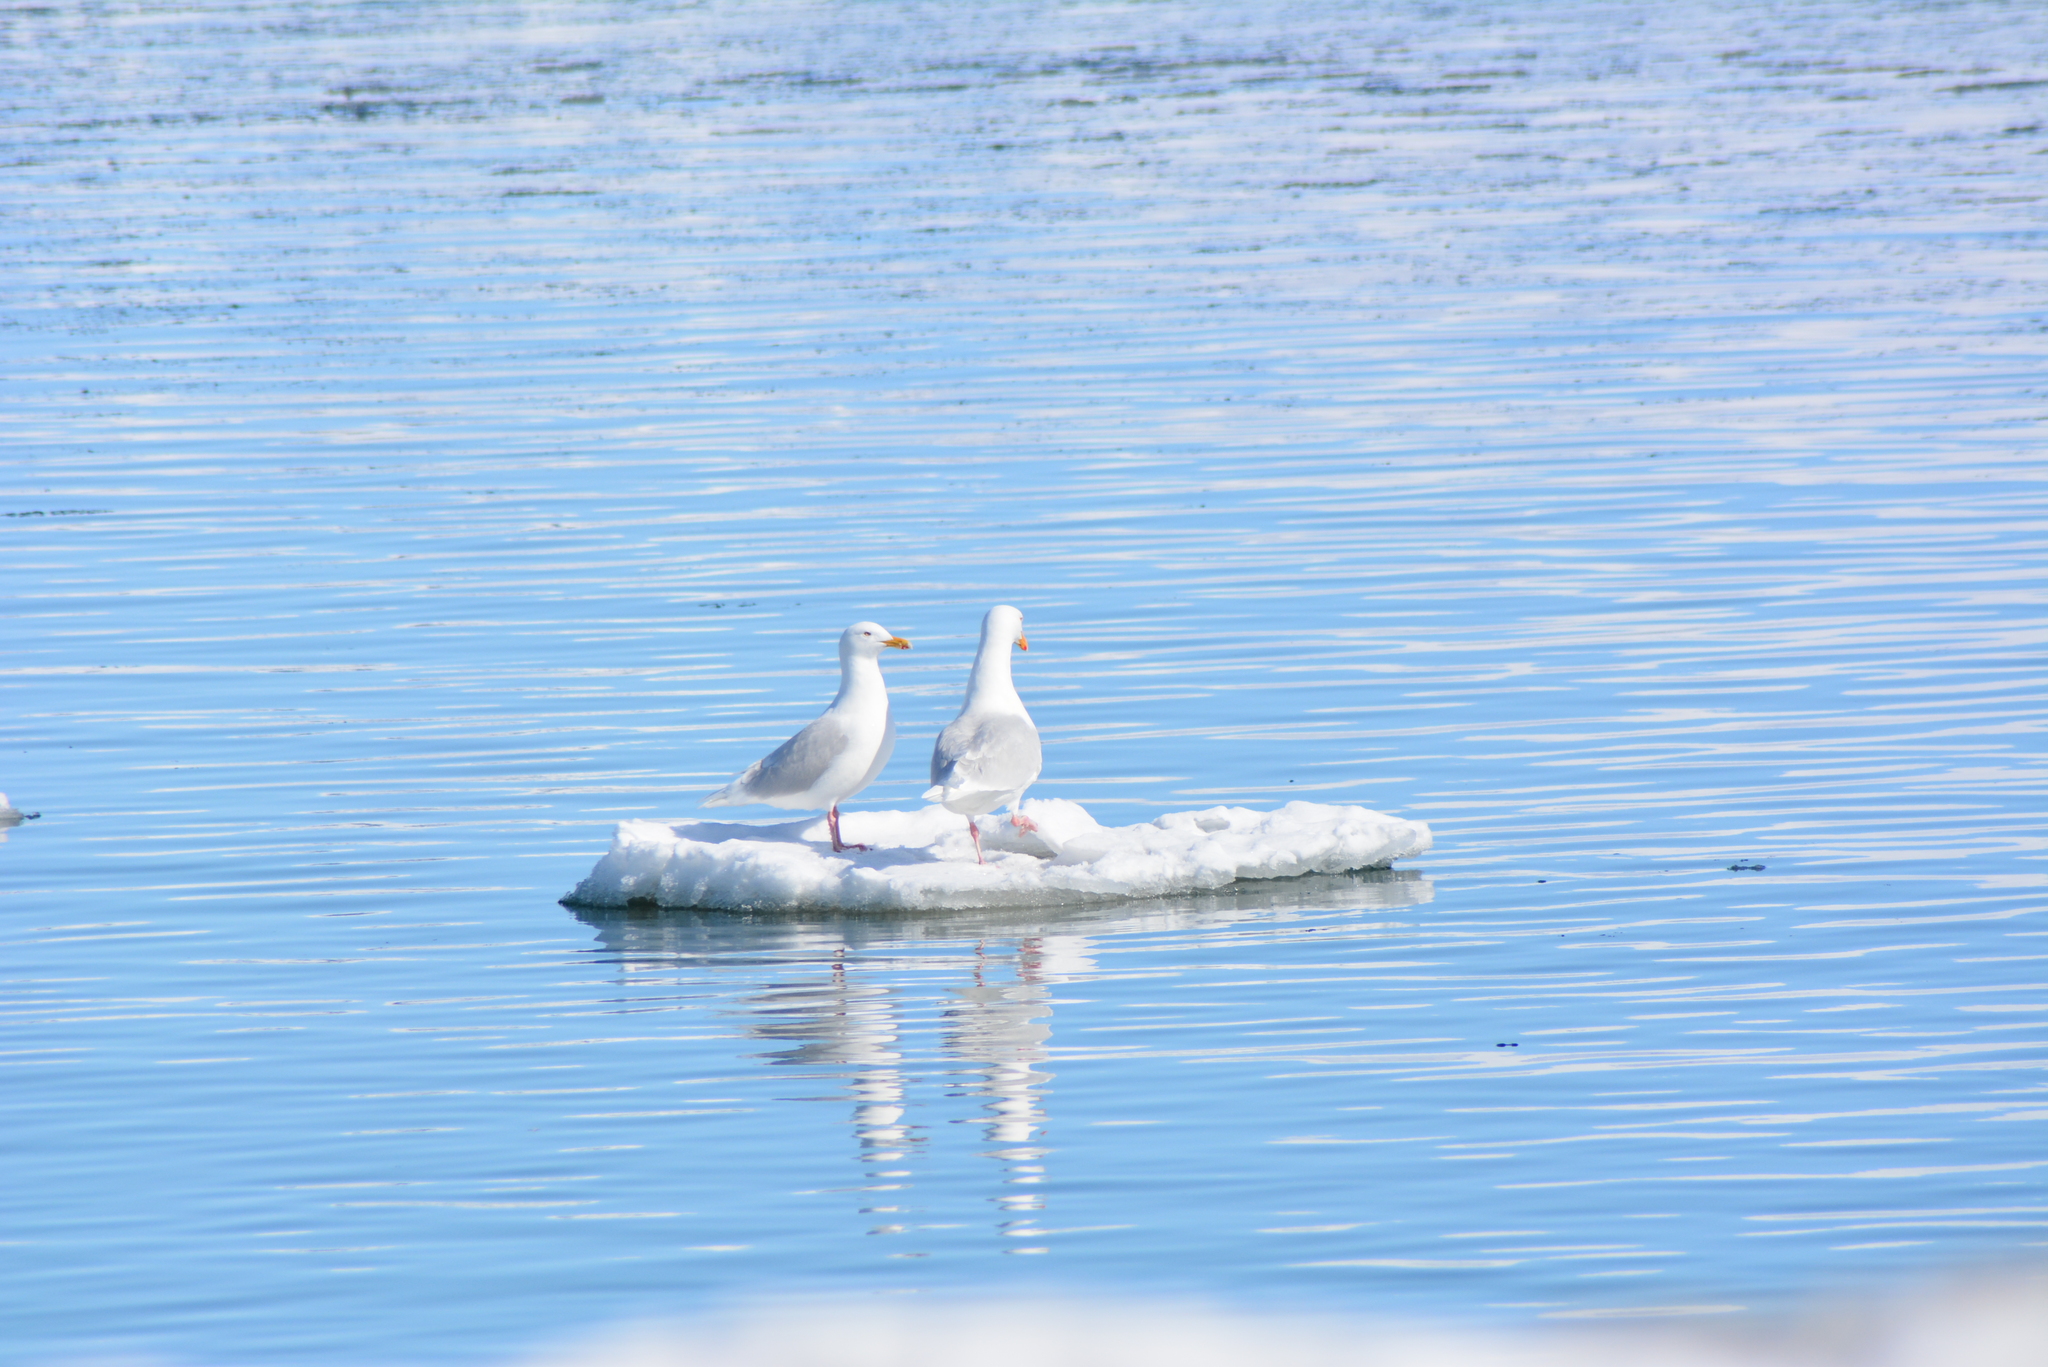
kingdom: Animalia
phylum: Chordata
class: Aves
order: Charadriiformes
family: Laridae
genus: Larus
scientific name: Larus hyperboreus
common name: Glaucous gull
